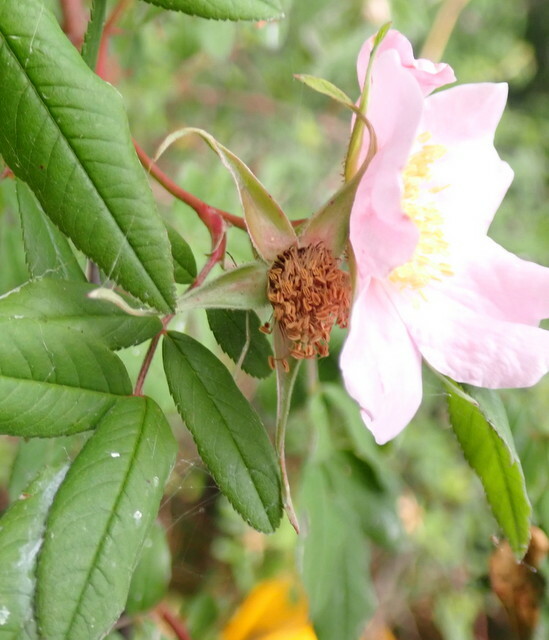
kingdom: Plantae
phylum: Tracheophyta
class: Magnoliopsida
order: Rosales
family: Rosaceae
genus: Rosa
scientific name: Rosa palustris
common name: Swamp rose
